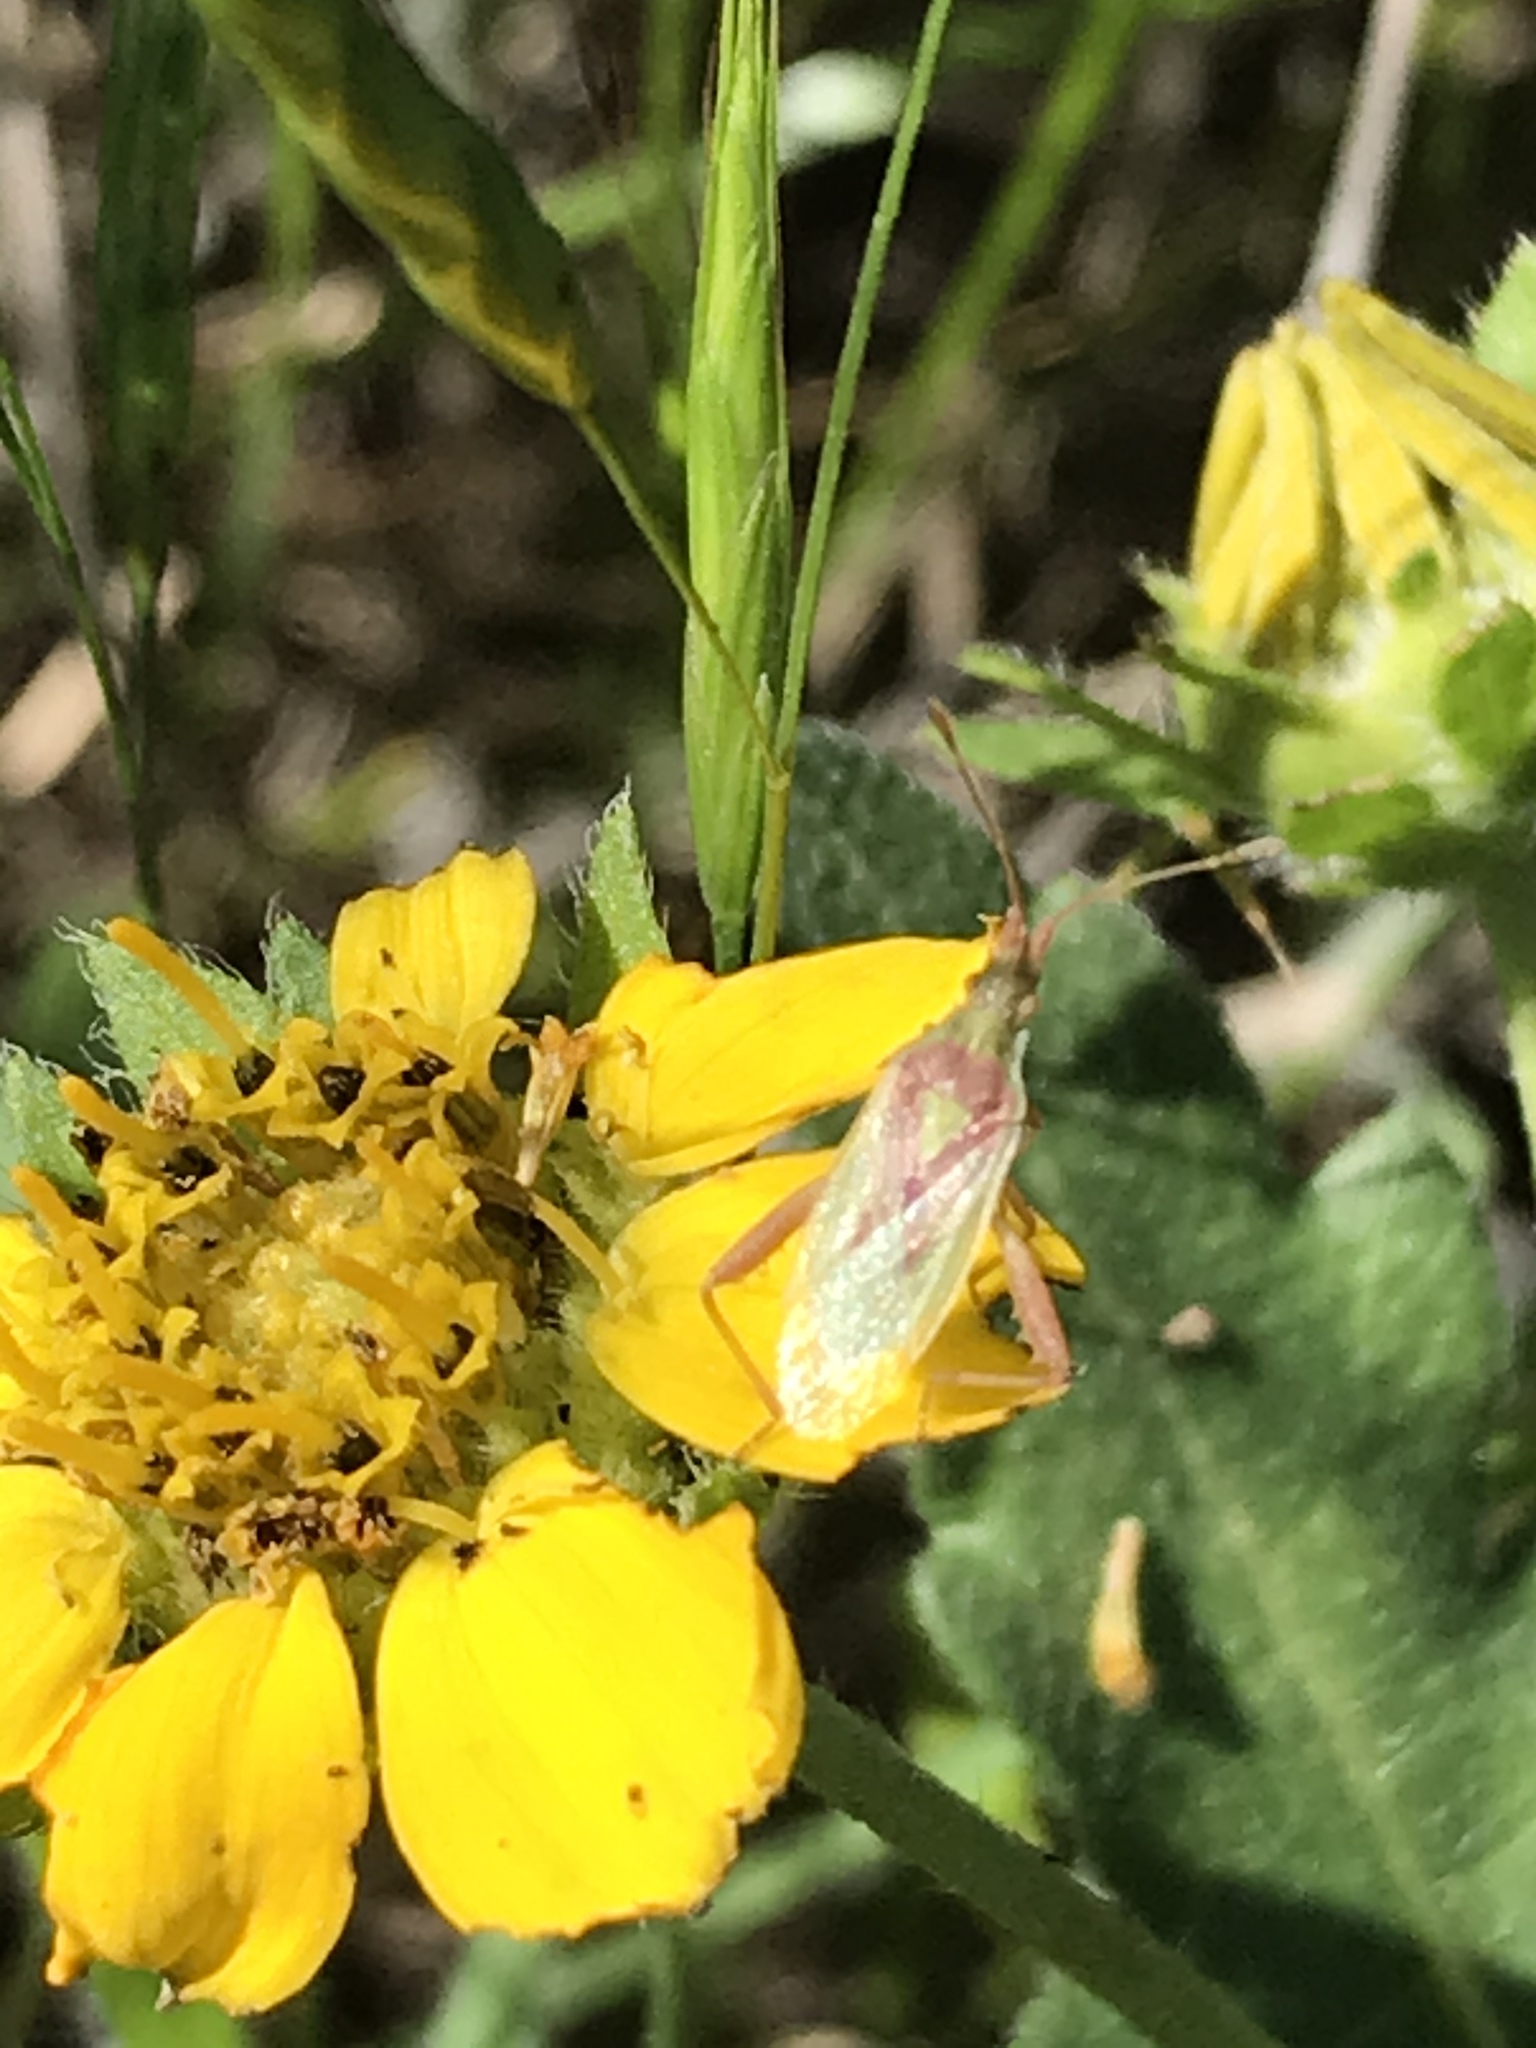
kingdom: Animalia
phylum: Arthropoda
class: Insecta
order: Hemiptera
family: Rhopalidae
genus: Harmostes
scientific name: Harmostes reflexulus
